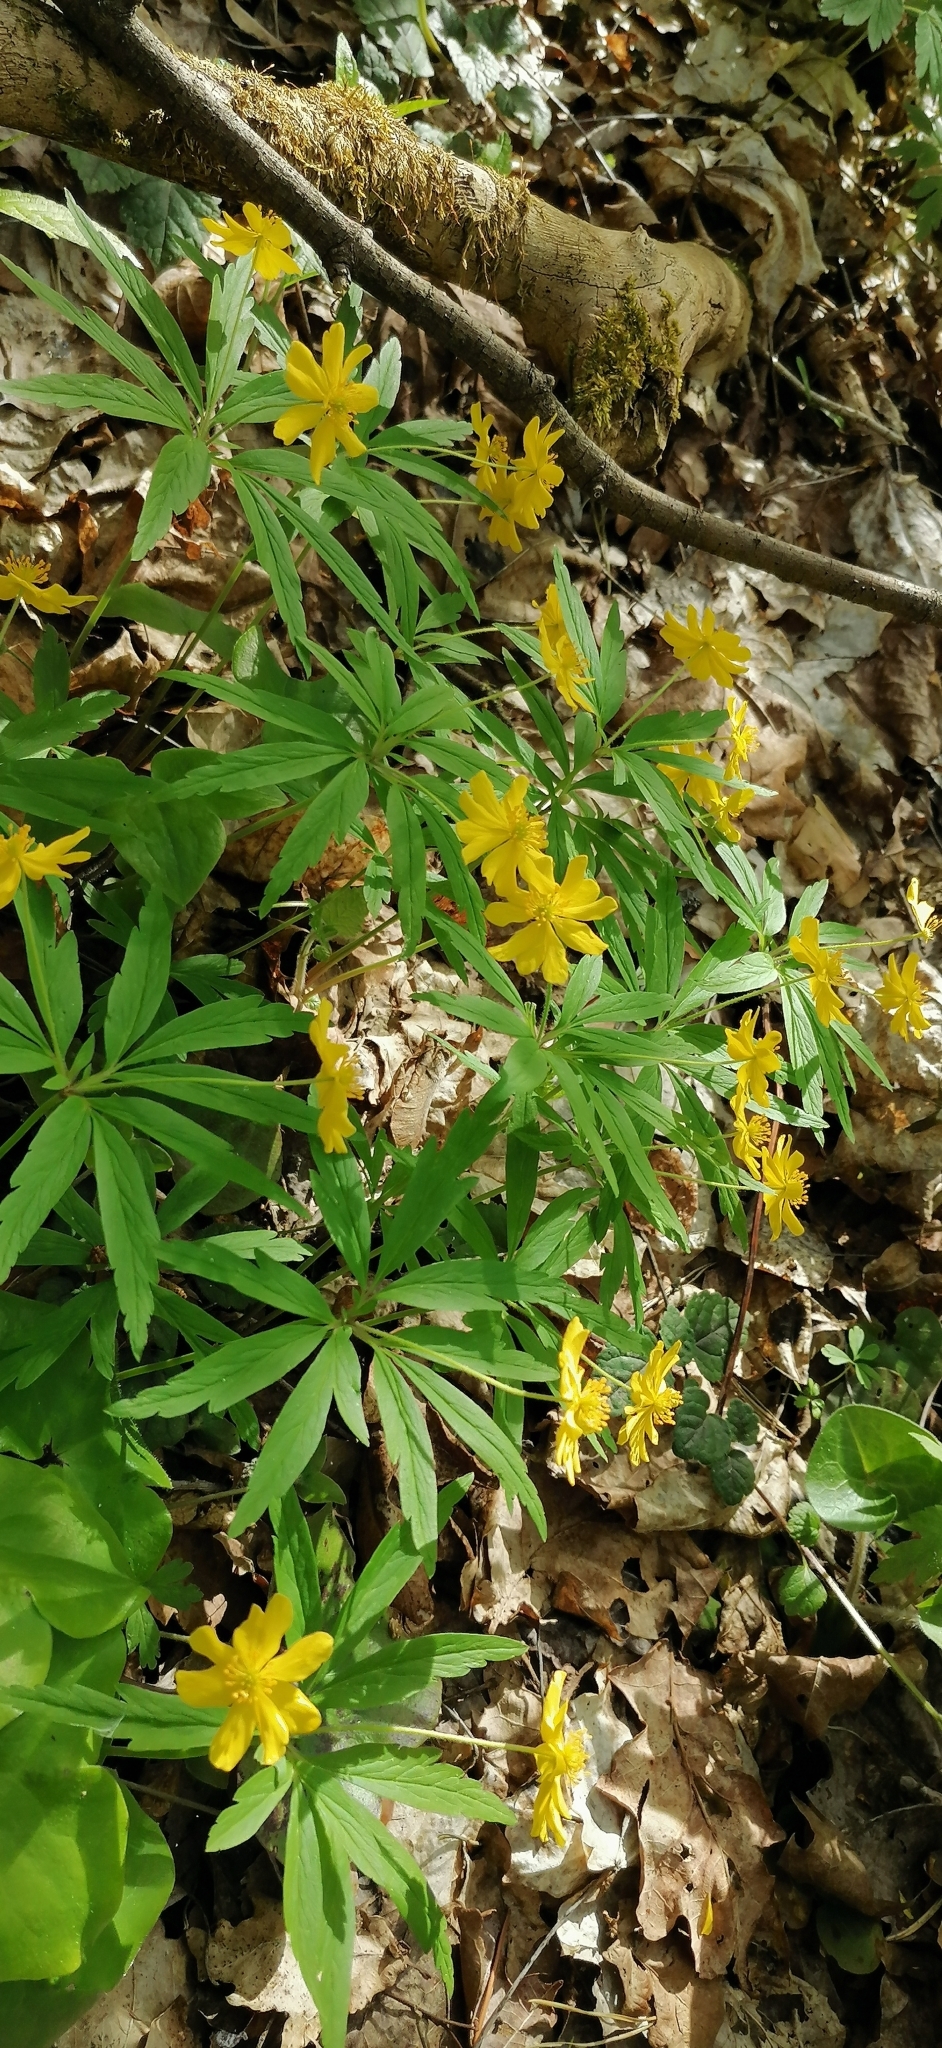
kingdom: Plantae
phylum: Tracheophyta
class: Magnoliopsida
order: Ranunculales
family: Ranunculaceae
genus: Anemone
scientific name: Anemone ranunculoides
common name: Yellow anemone
